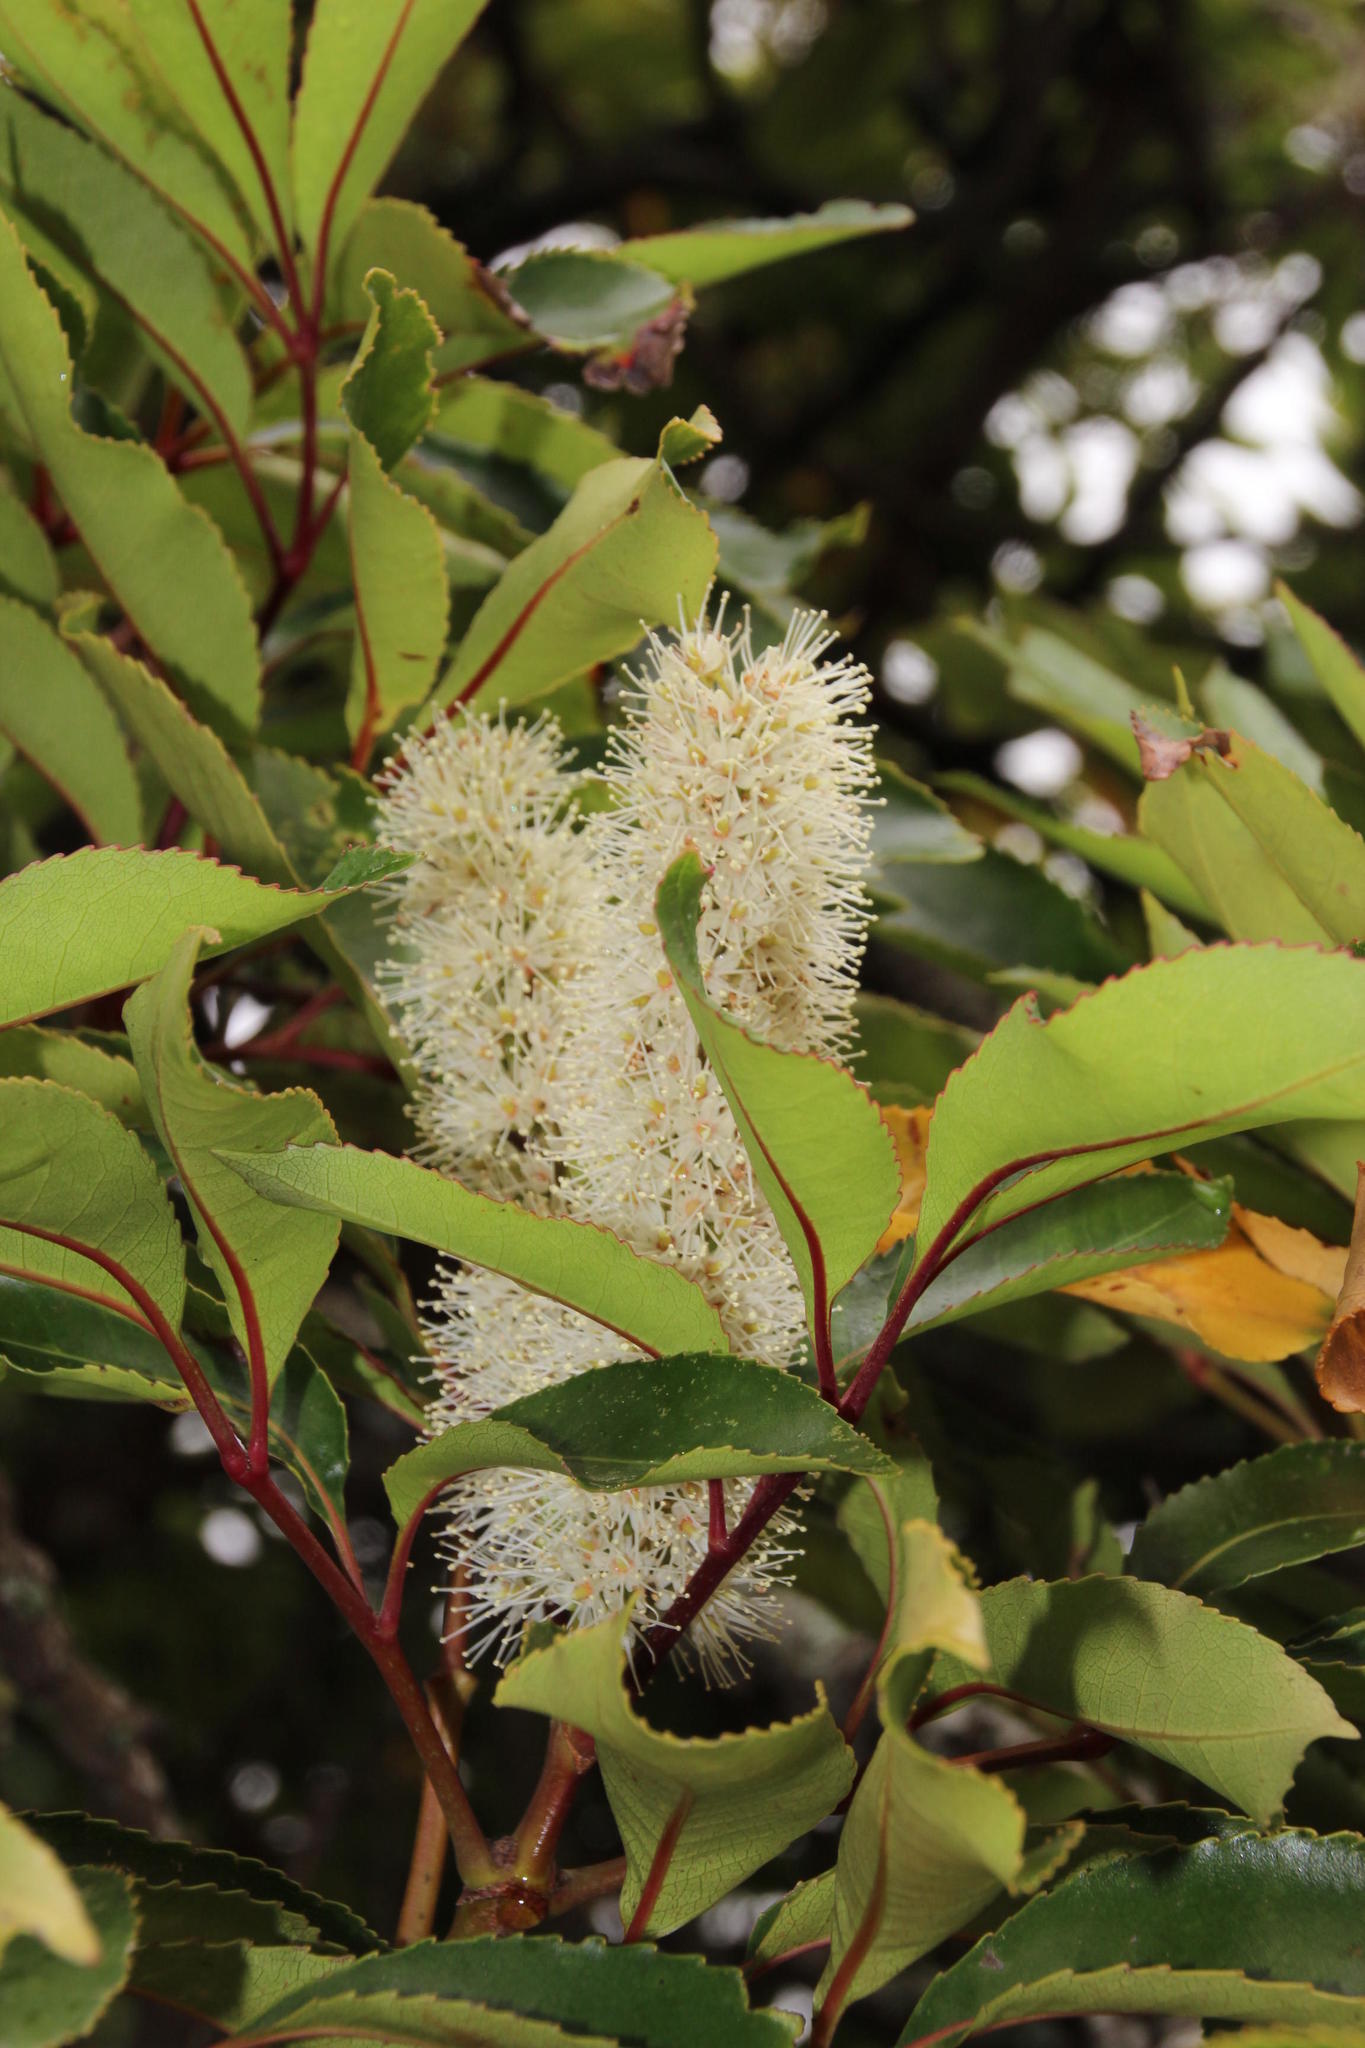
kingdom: Plantae
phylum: Tracheophyta
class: Magnoliopsida
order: Oxalidales
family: Cunoniaceae
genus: Cunonia
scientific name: Cunonia capensis
